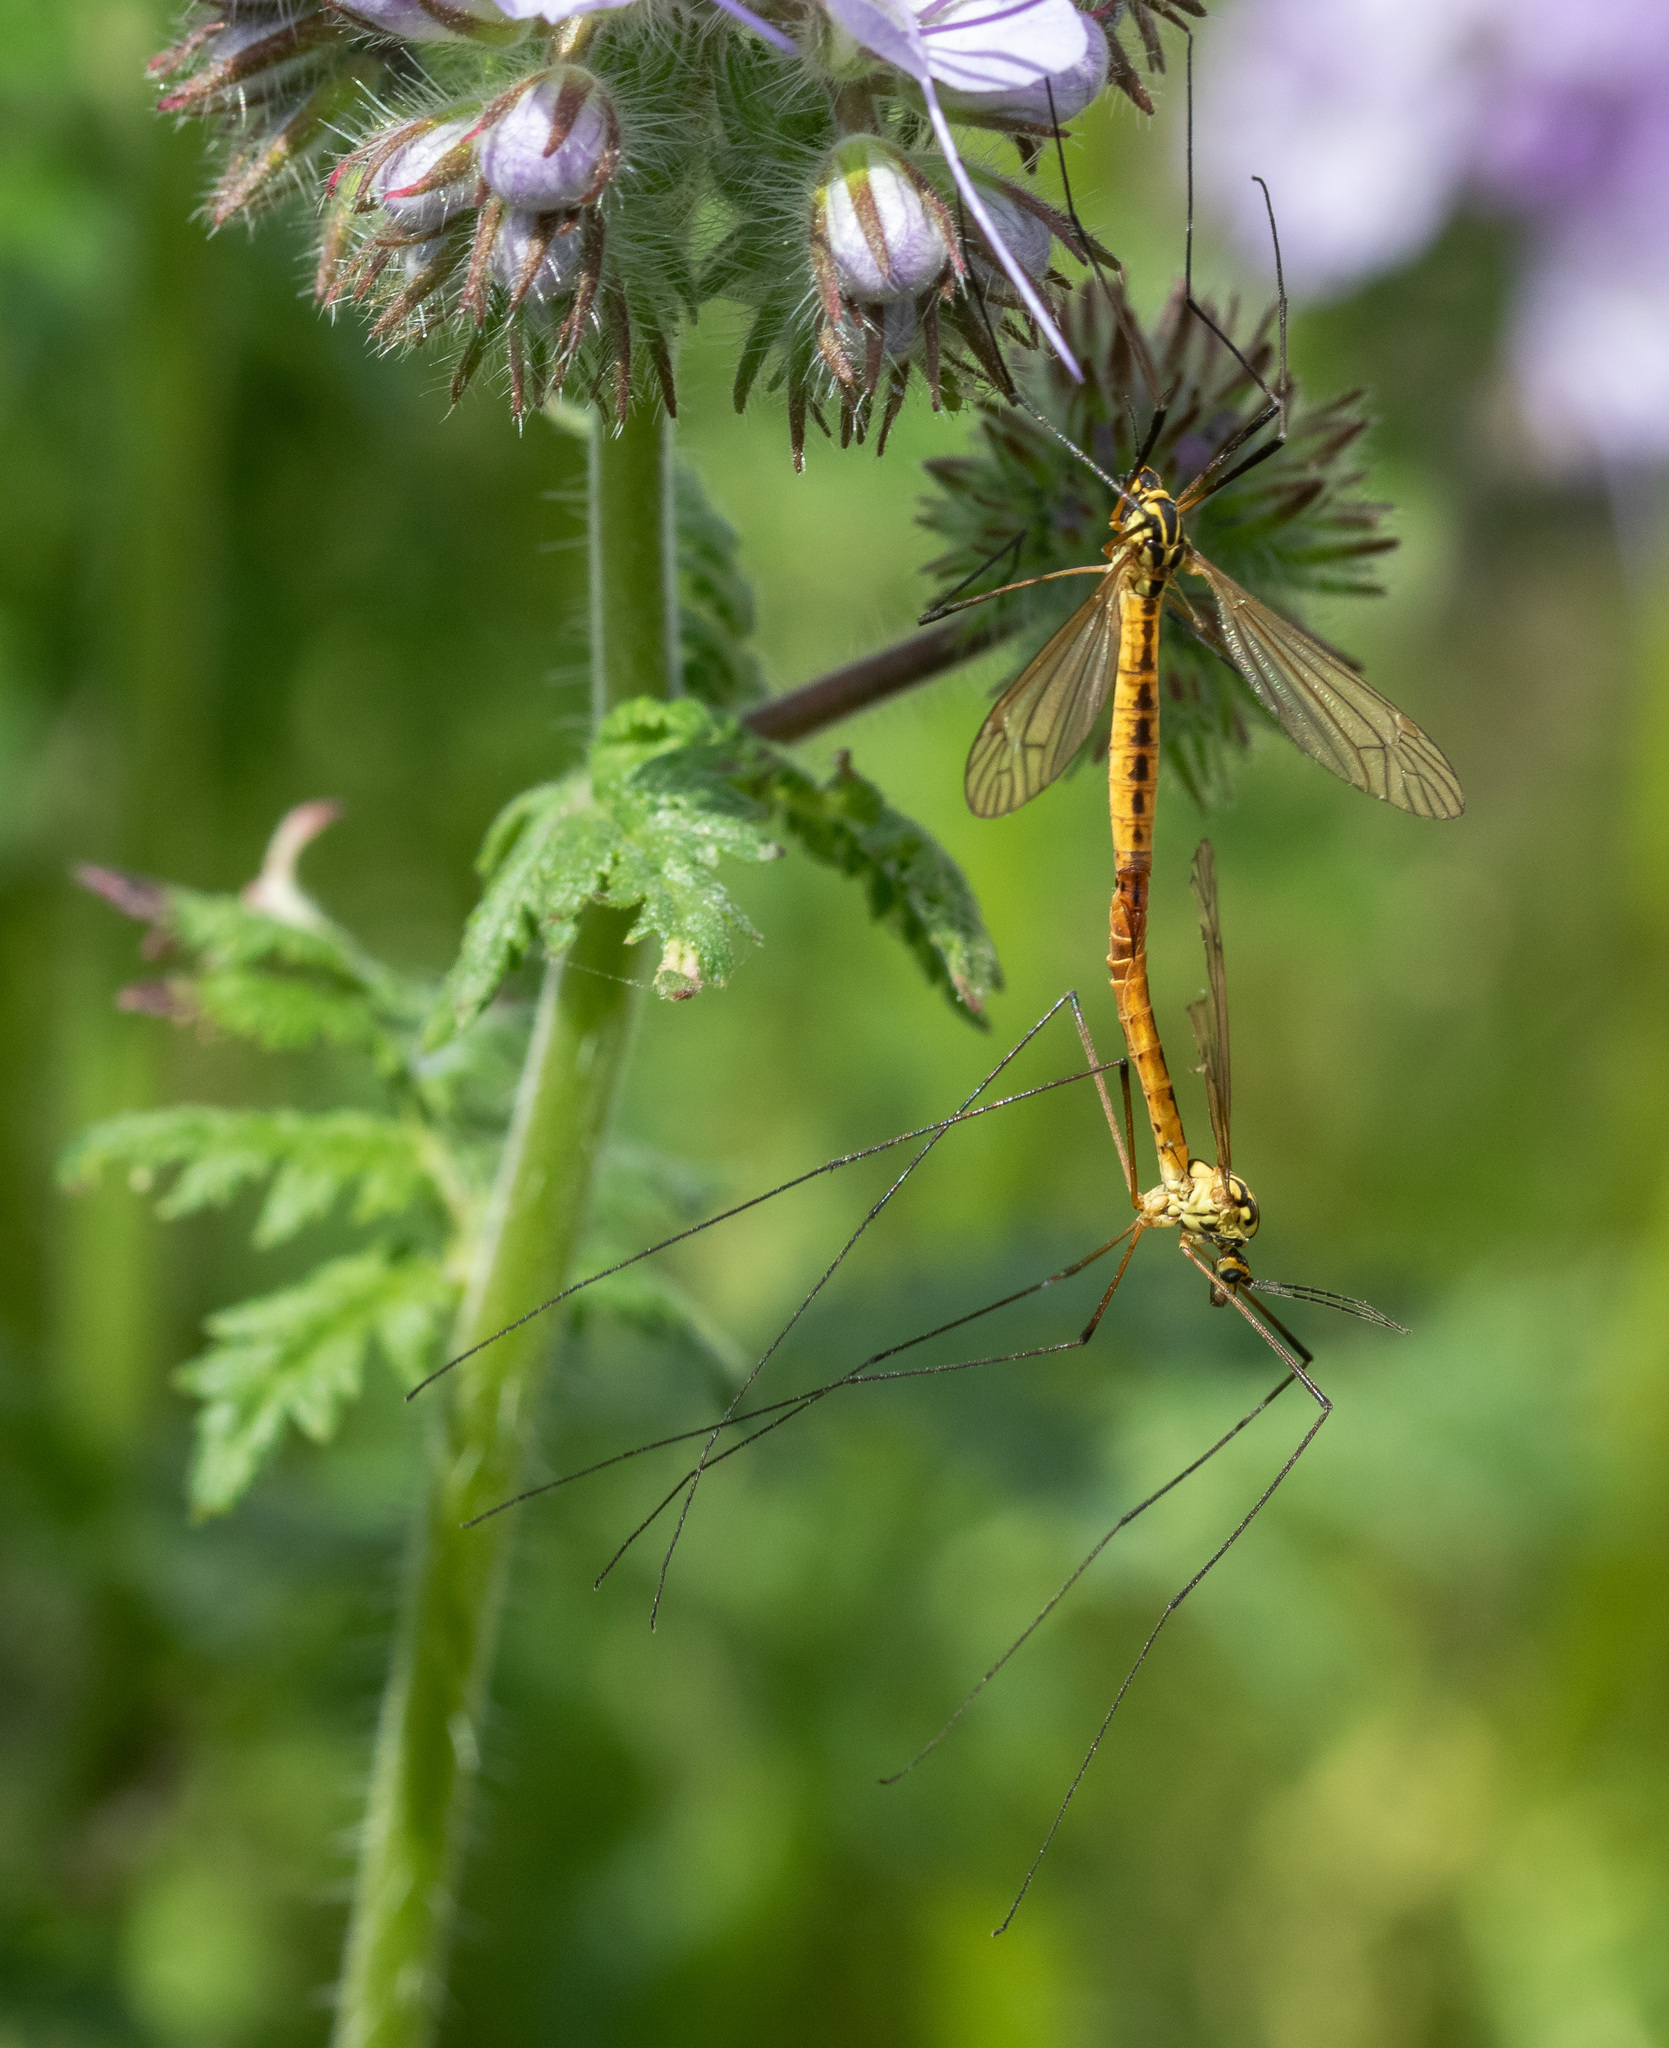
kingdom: Animalia
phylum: Arthropoda
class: Insecta
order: Diptera
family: Tipulidae
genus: Nephrotoma
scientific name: Nephrotoma flavescens
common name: Tiger cranefly
